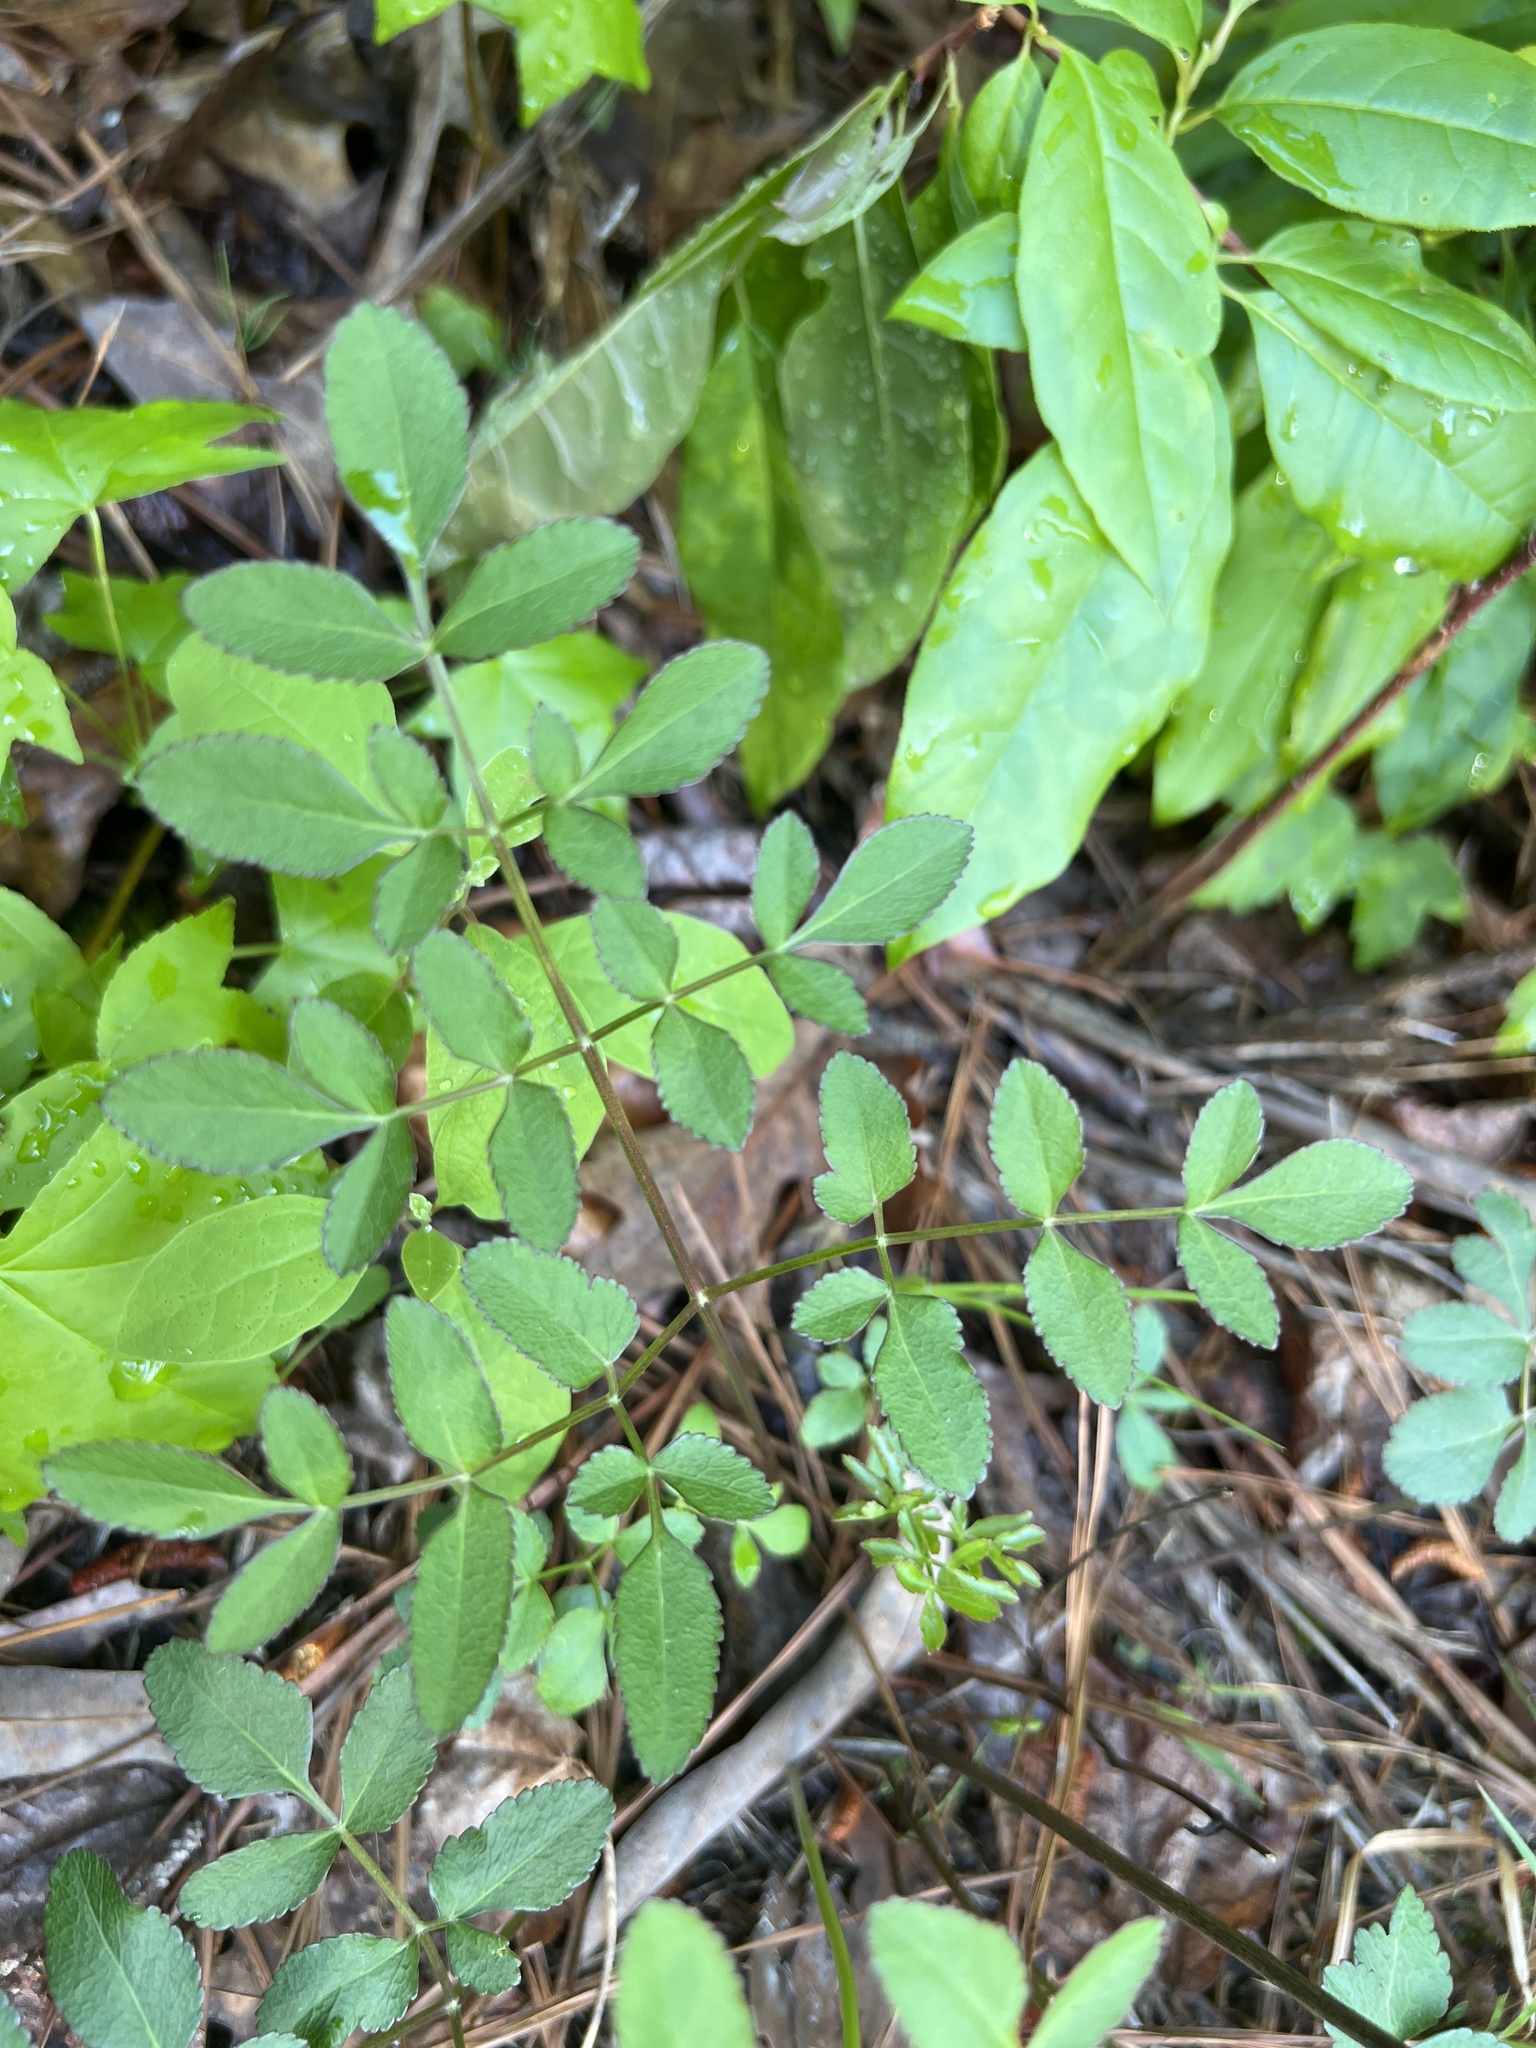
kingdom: Plantae
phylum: Tracheophyta
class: Magnoliopsida
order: Apiales
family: Apiaceae
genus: Angelica
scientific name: Angelica venenosa
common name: Hairy angelica
